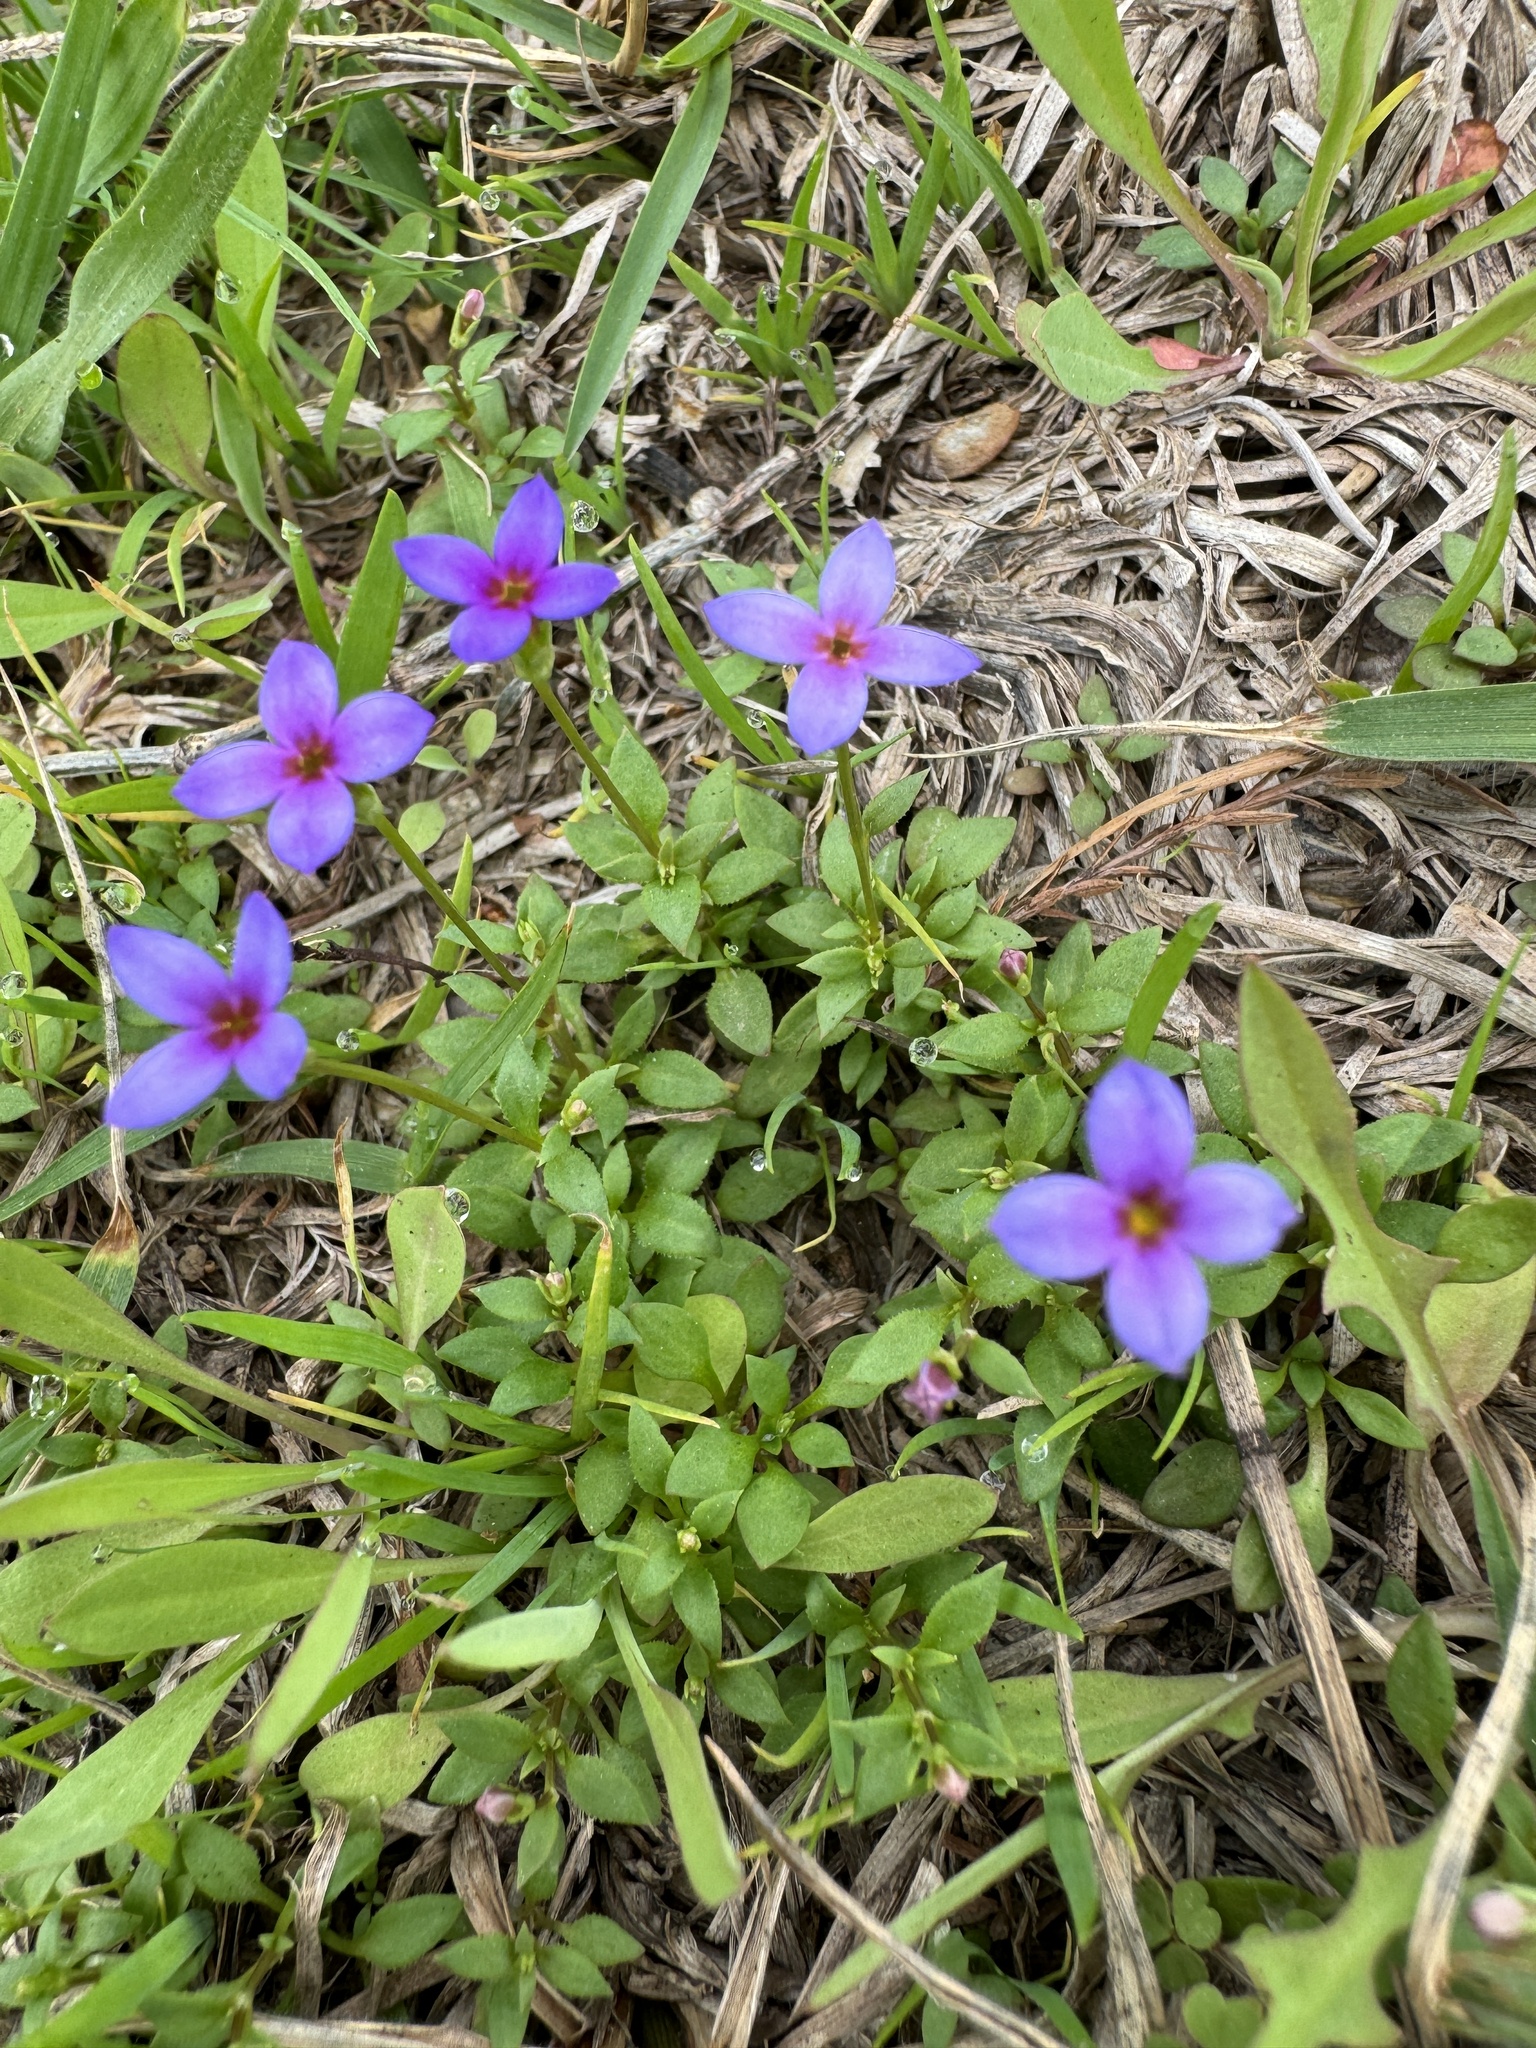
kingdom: Plantae
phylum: Tracheophyta
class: Magnoliopsida
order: Gentianales
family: Rubiaceae
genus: Houstonia
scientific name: Houstonia pusilla
